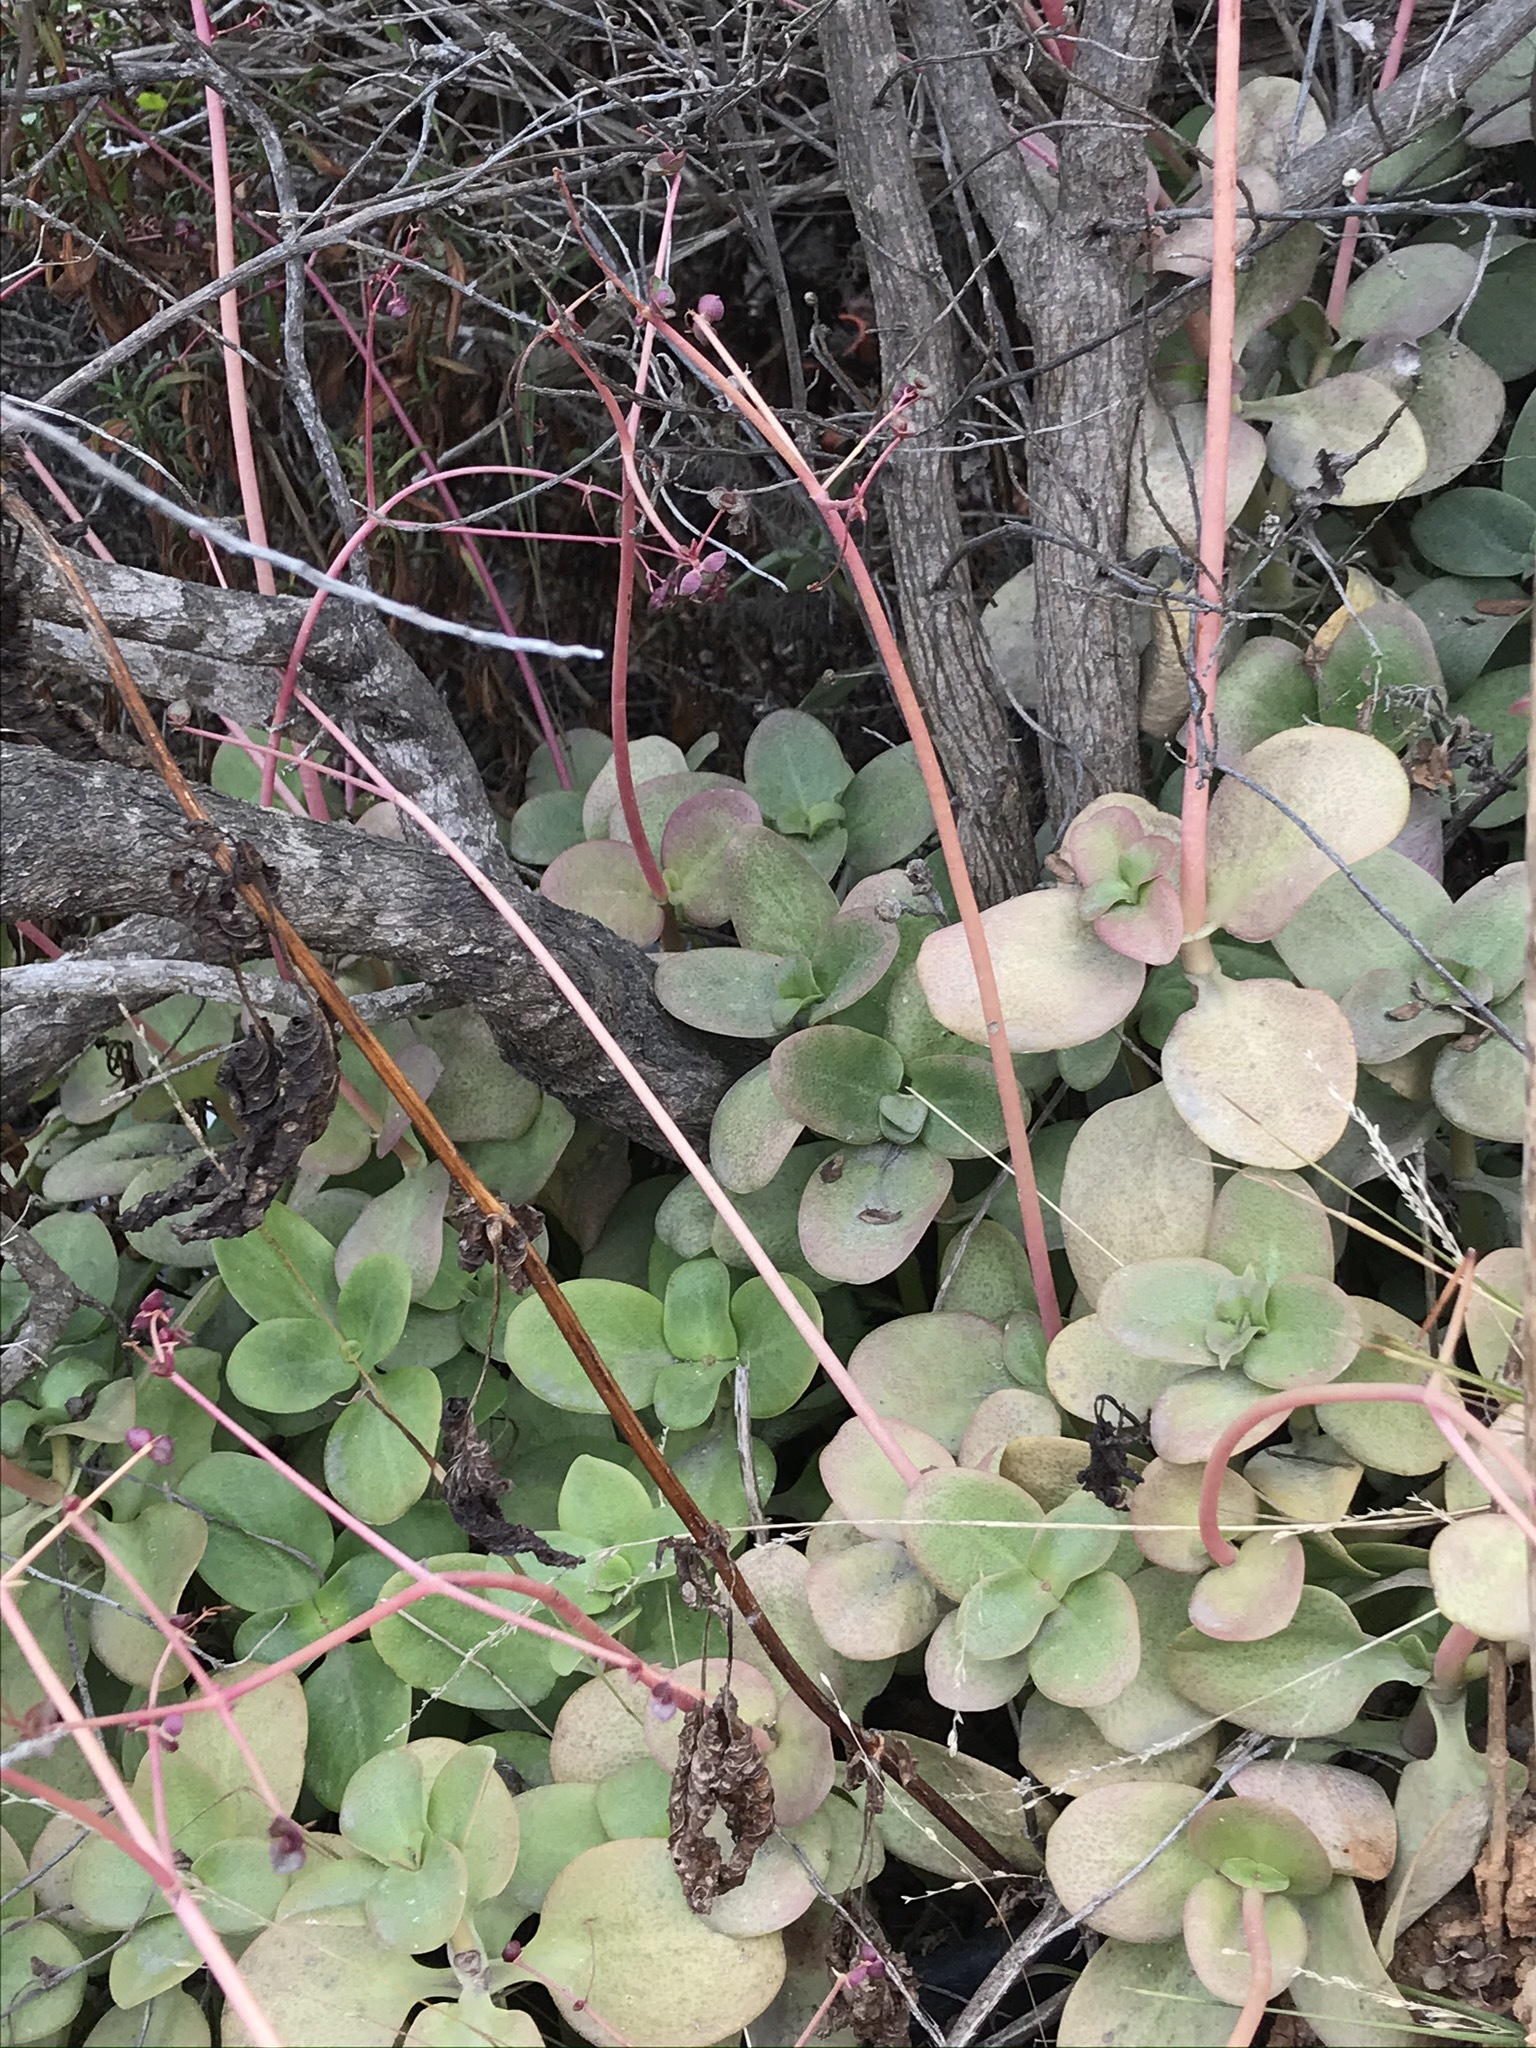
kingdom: Plantae
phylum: Tracheophyta
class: Magnoliopsida
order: Saxifragales
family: Crassulaceae
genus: Crassula
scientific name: Crassula multicava
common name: Cape province pygmyweed
